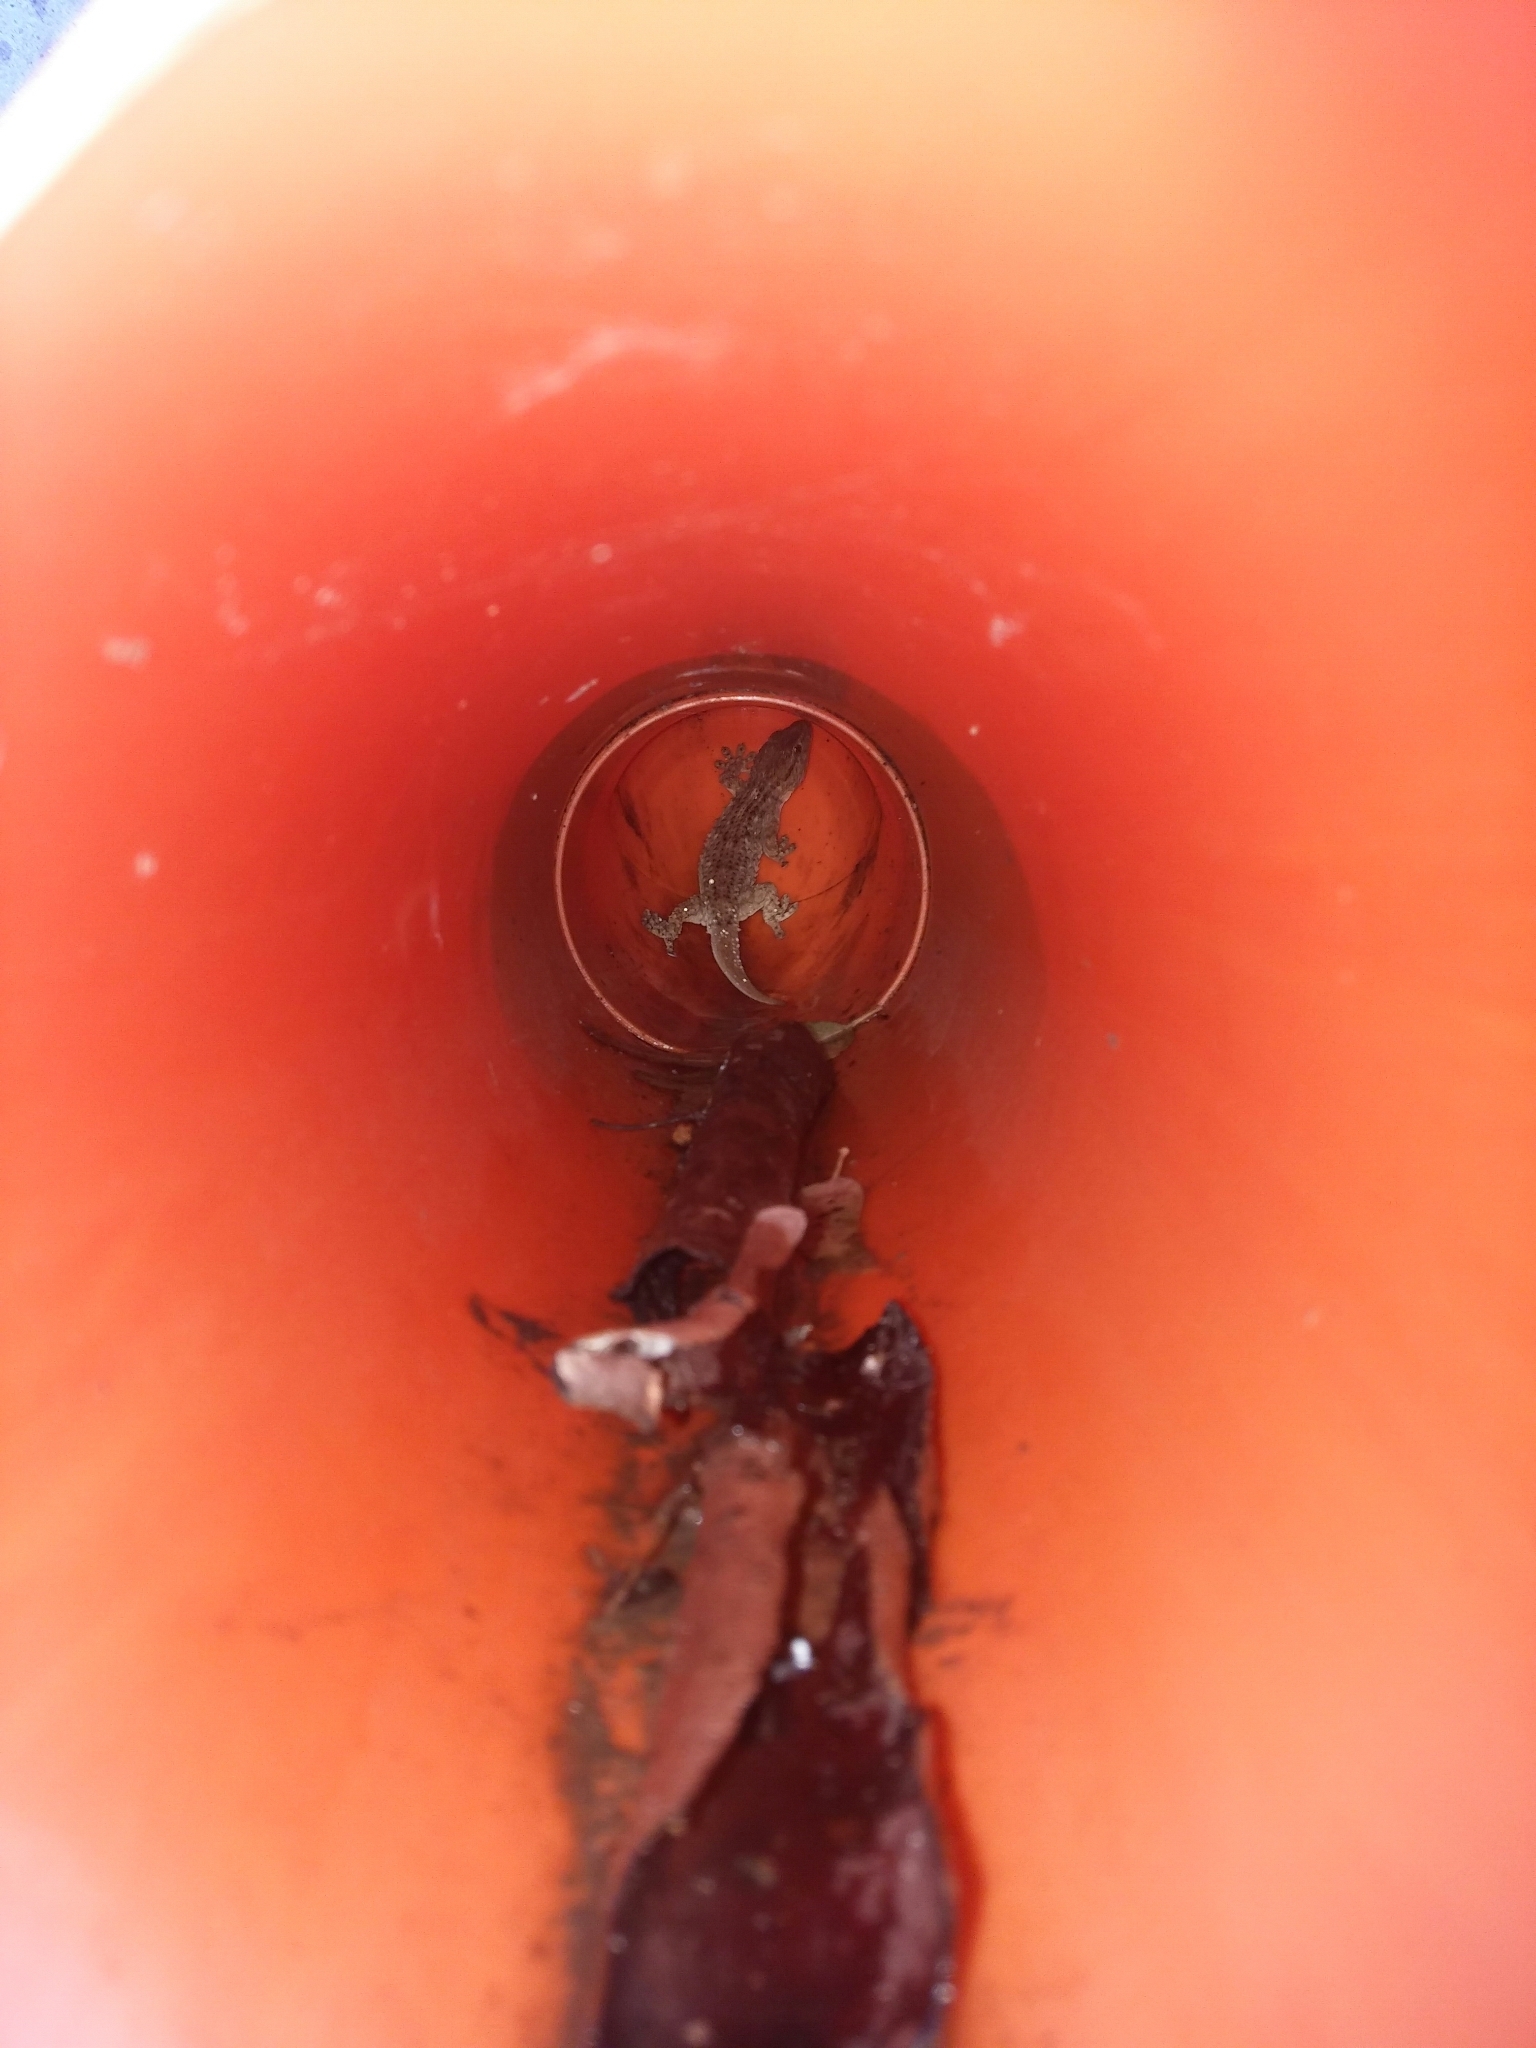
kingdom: Animalia
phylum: Chordata
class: Squamata
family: Phyllodactylidae
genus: Tarentola
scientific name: Tarentola mauritanica
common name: Moorish gecko
